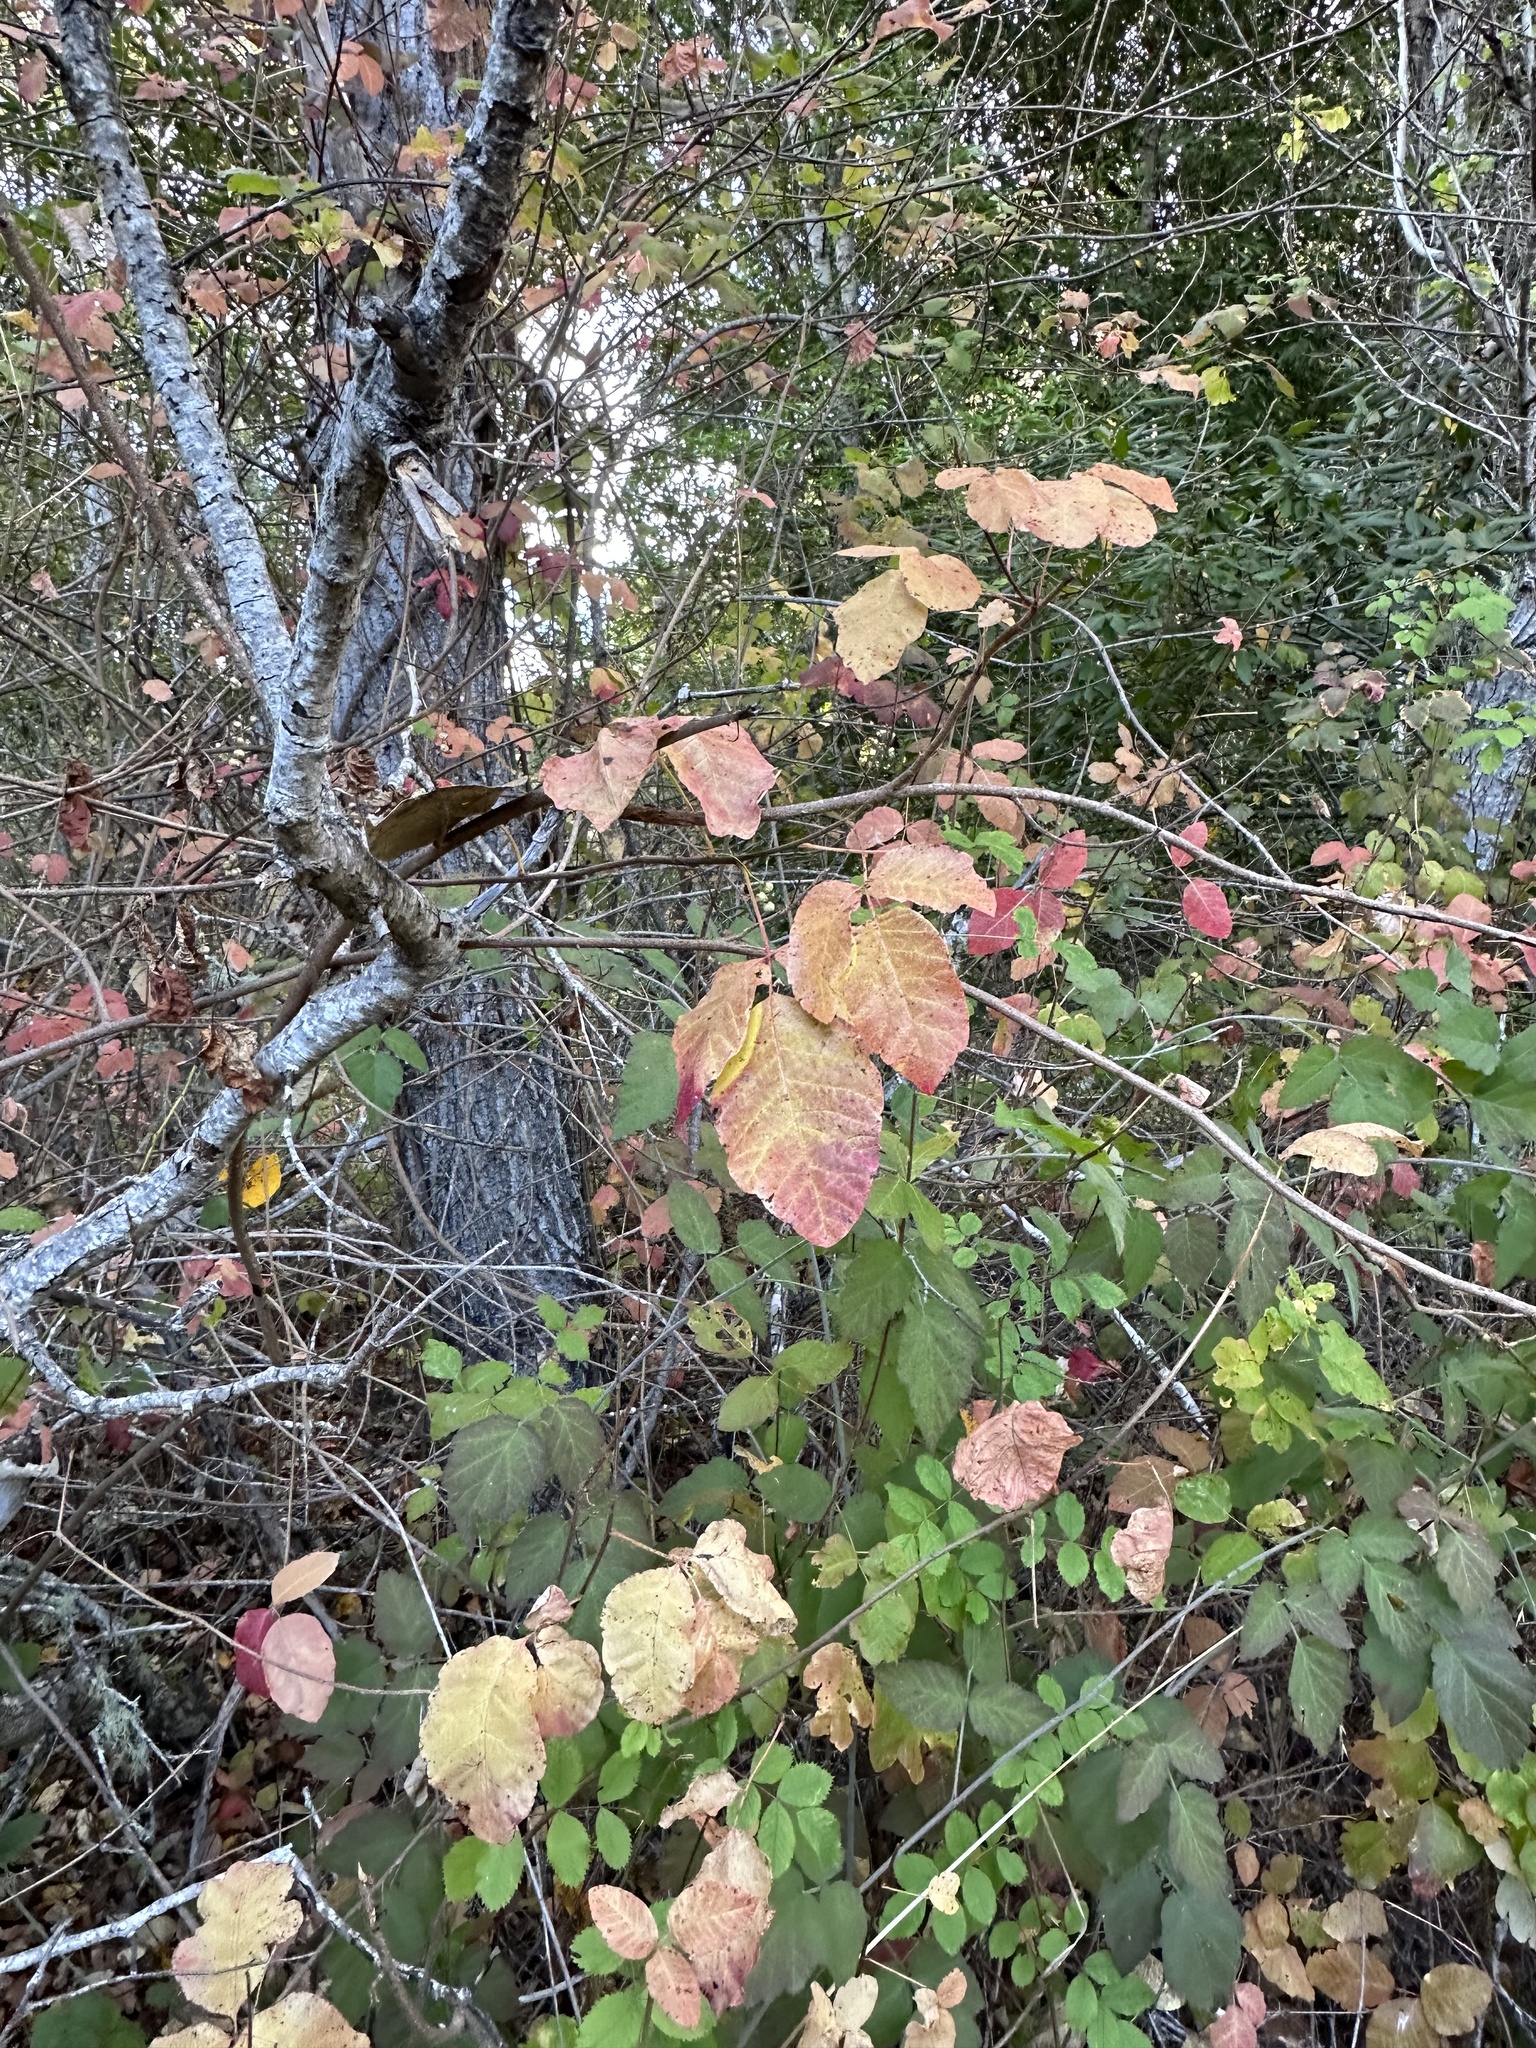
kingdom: Plantae
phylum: Tracheophyta
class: Magnoliopsida
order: Sapindales
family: Anacardiaceae
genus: Toxicodendron
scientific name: Toxicodendron diversilobum
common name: Pacific poison-oak
